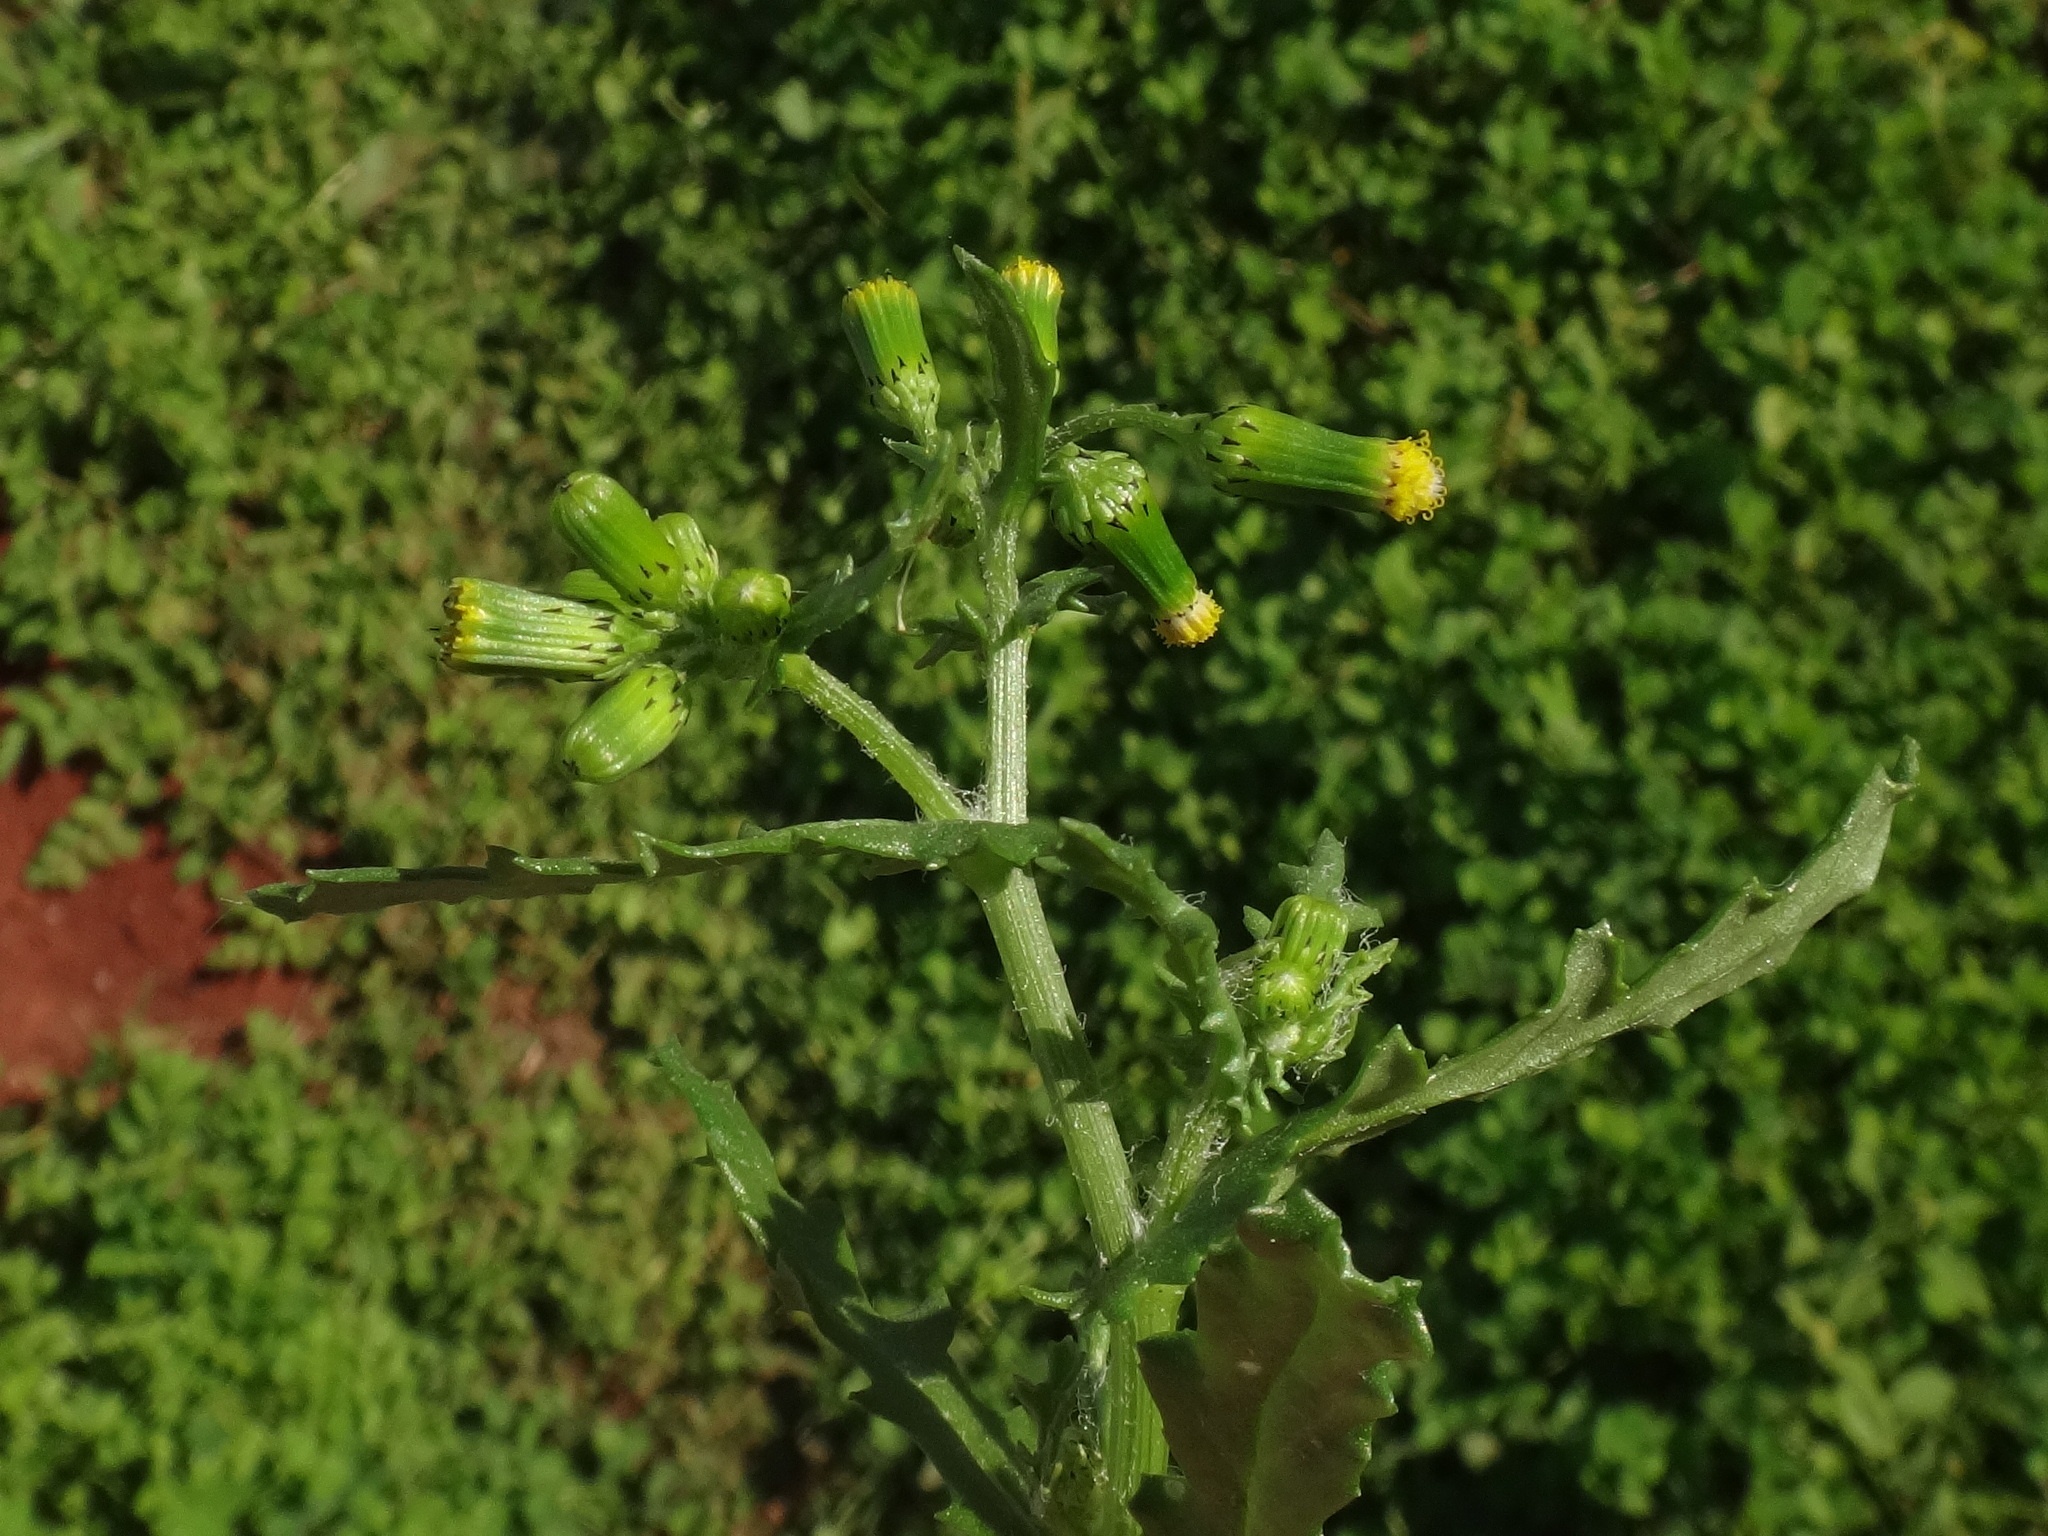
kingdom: Plantae
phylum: Tracheophyta
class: Magnoliopsida
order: Asterales
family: Asteraceae
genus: Senecio
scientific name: Senecio vulgaris
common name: Old-man-in-the-spring
